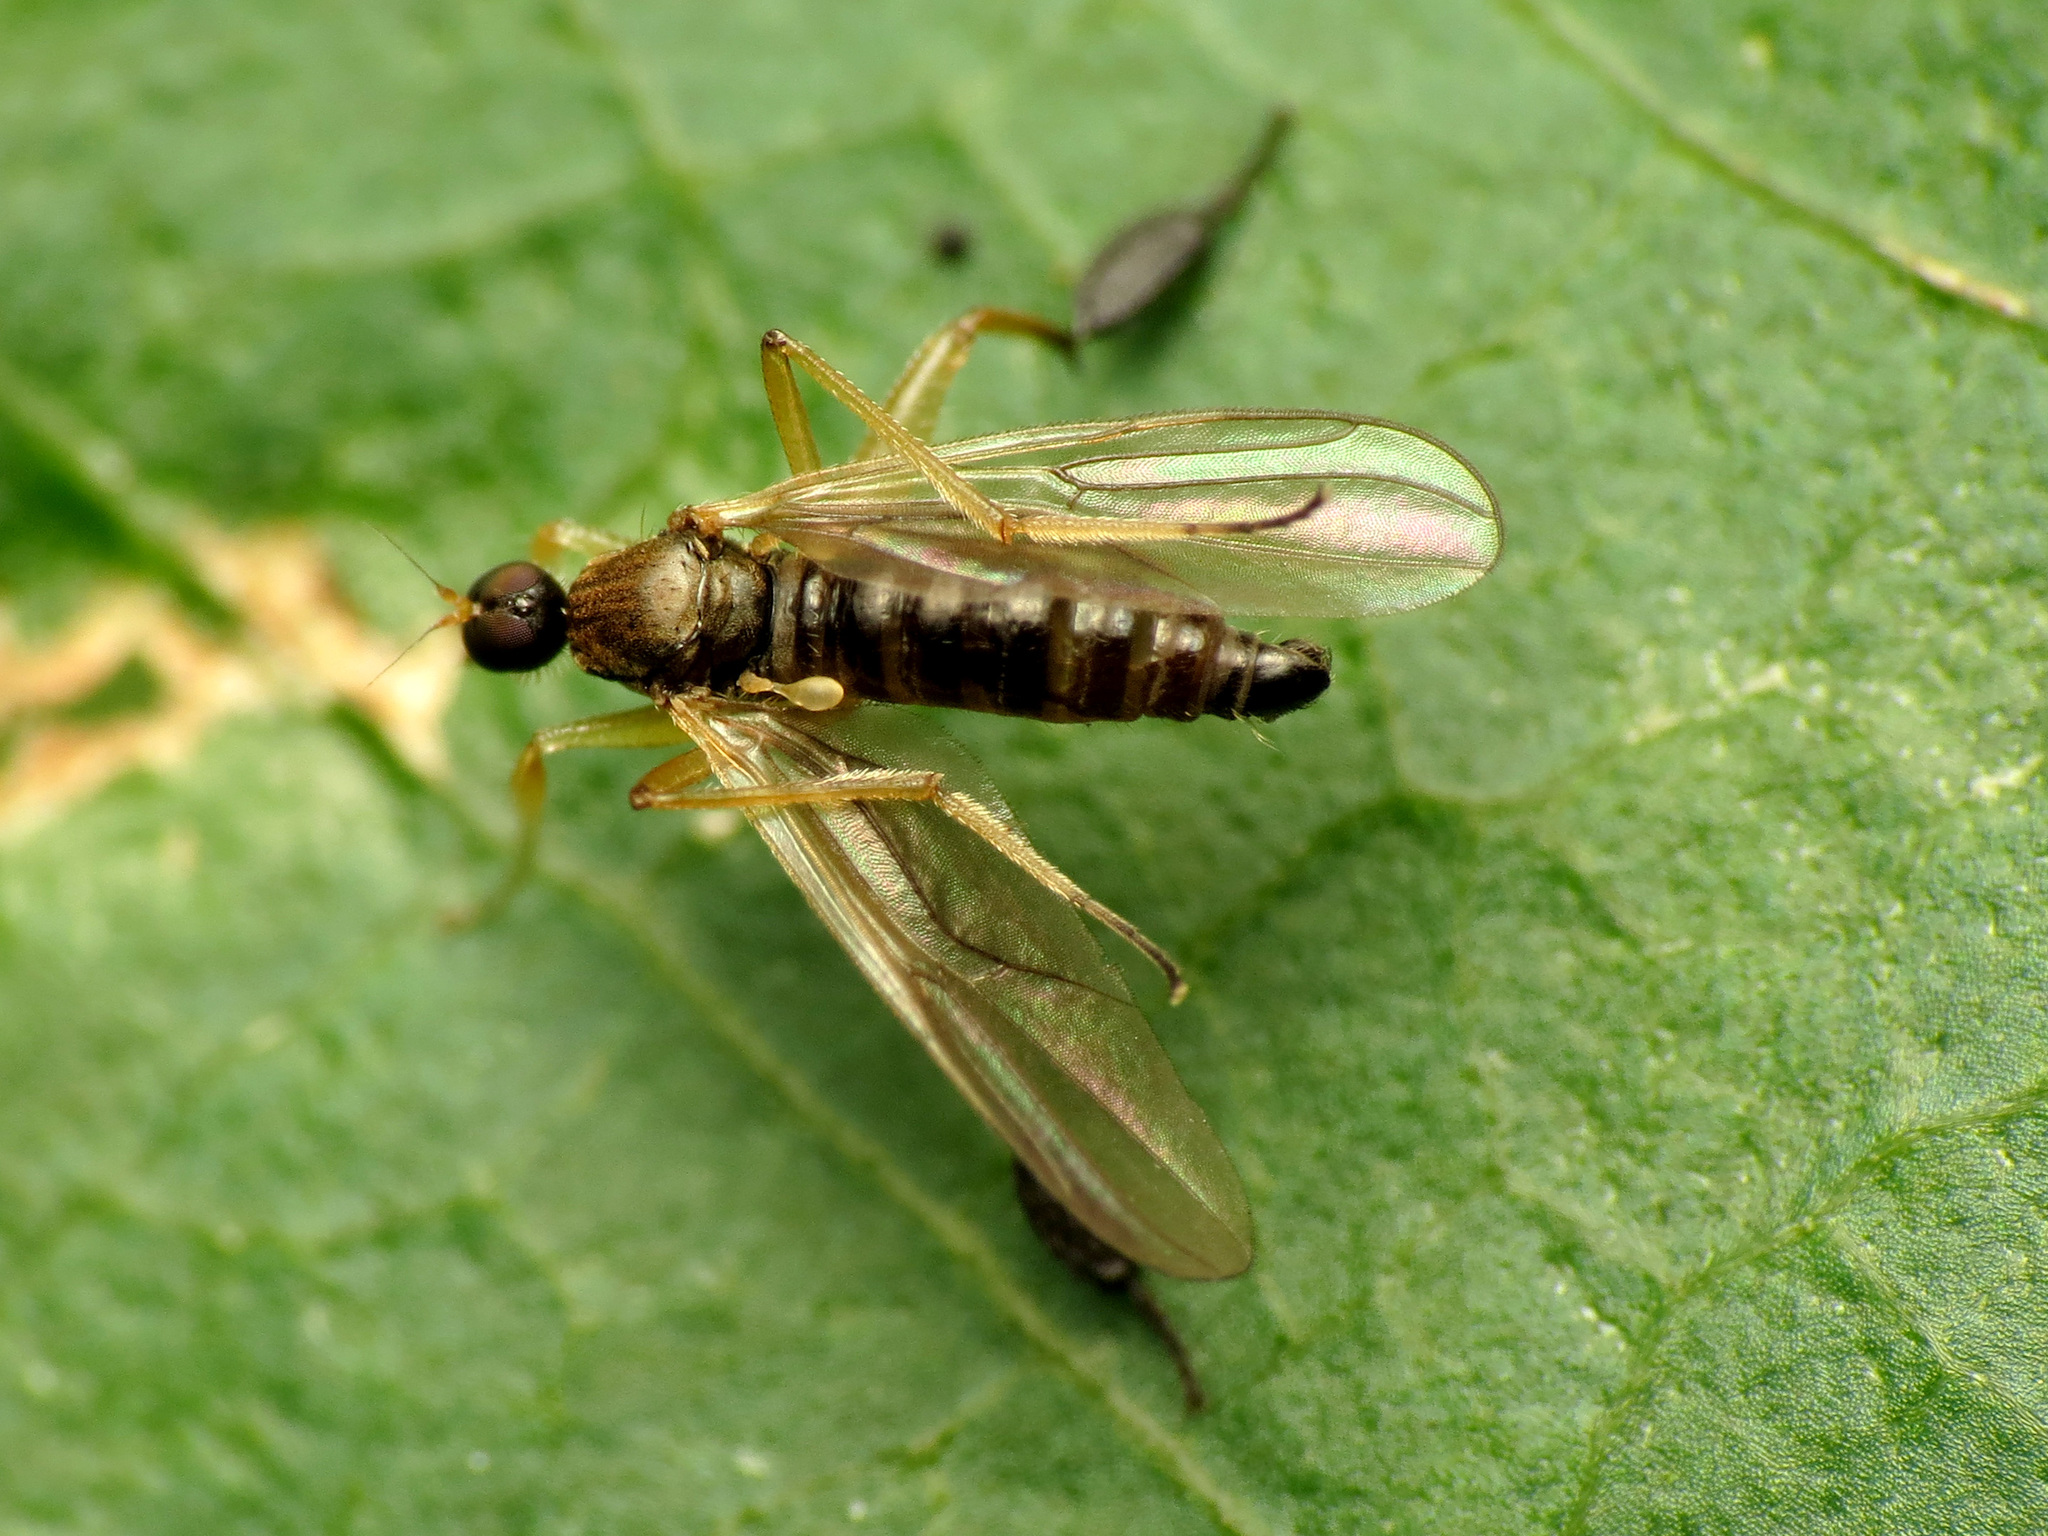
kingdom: Animalia
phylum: Arthropoda
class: Insecta
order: Diptera
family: Hybotidae
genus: Platypalpus
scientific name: Platypalpus discifer
